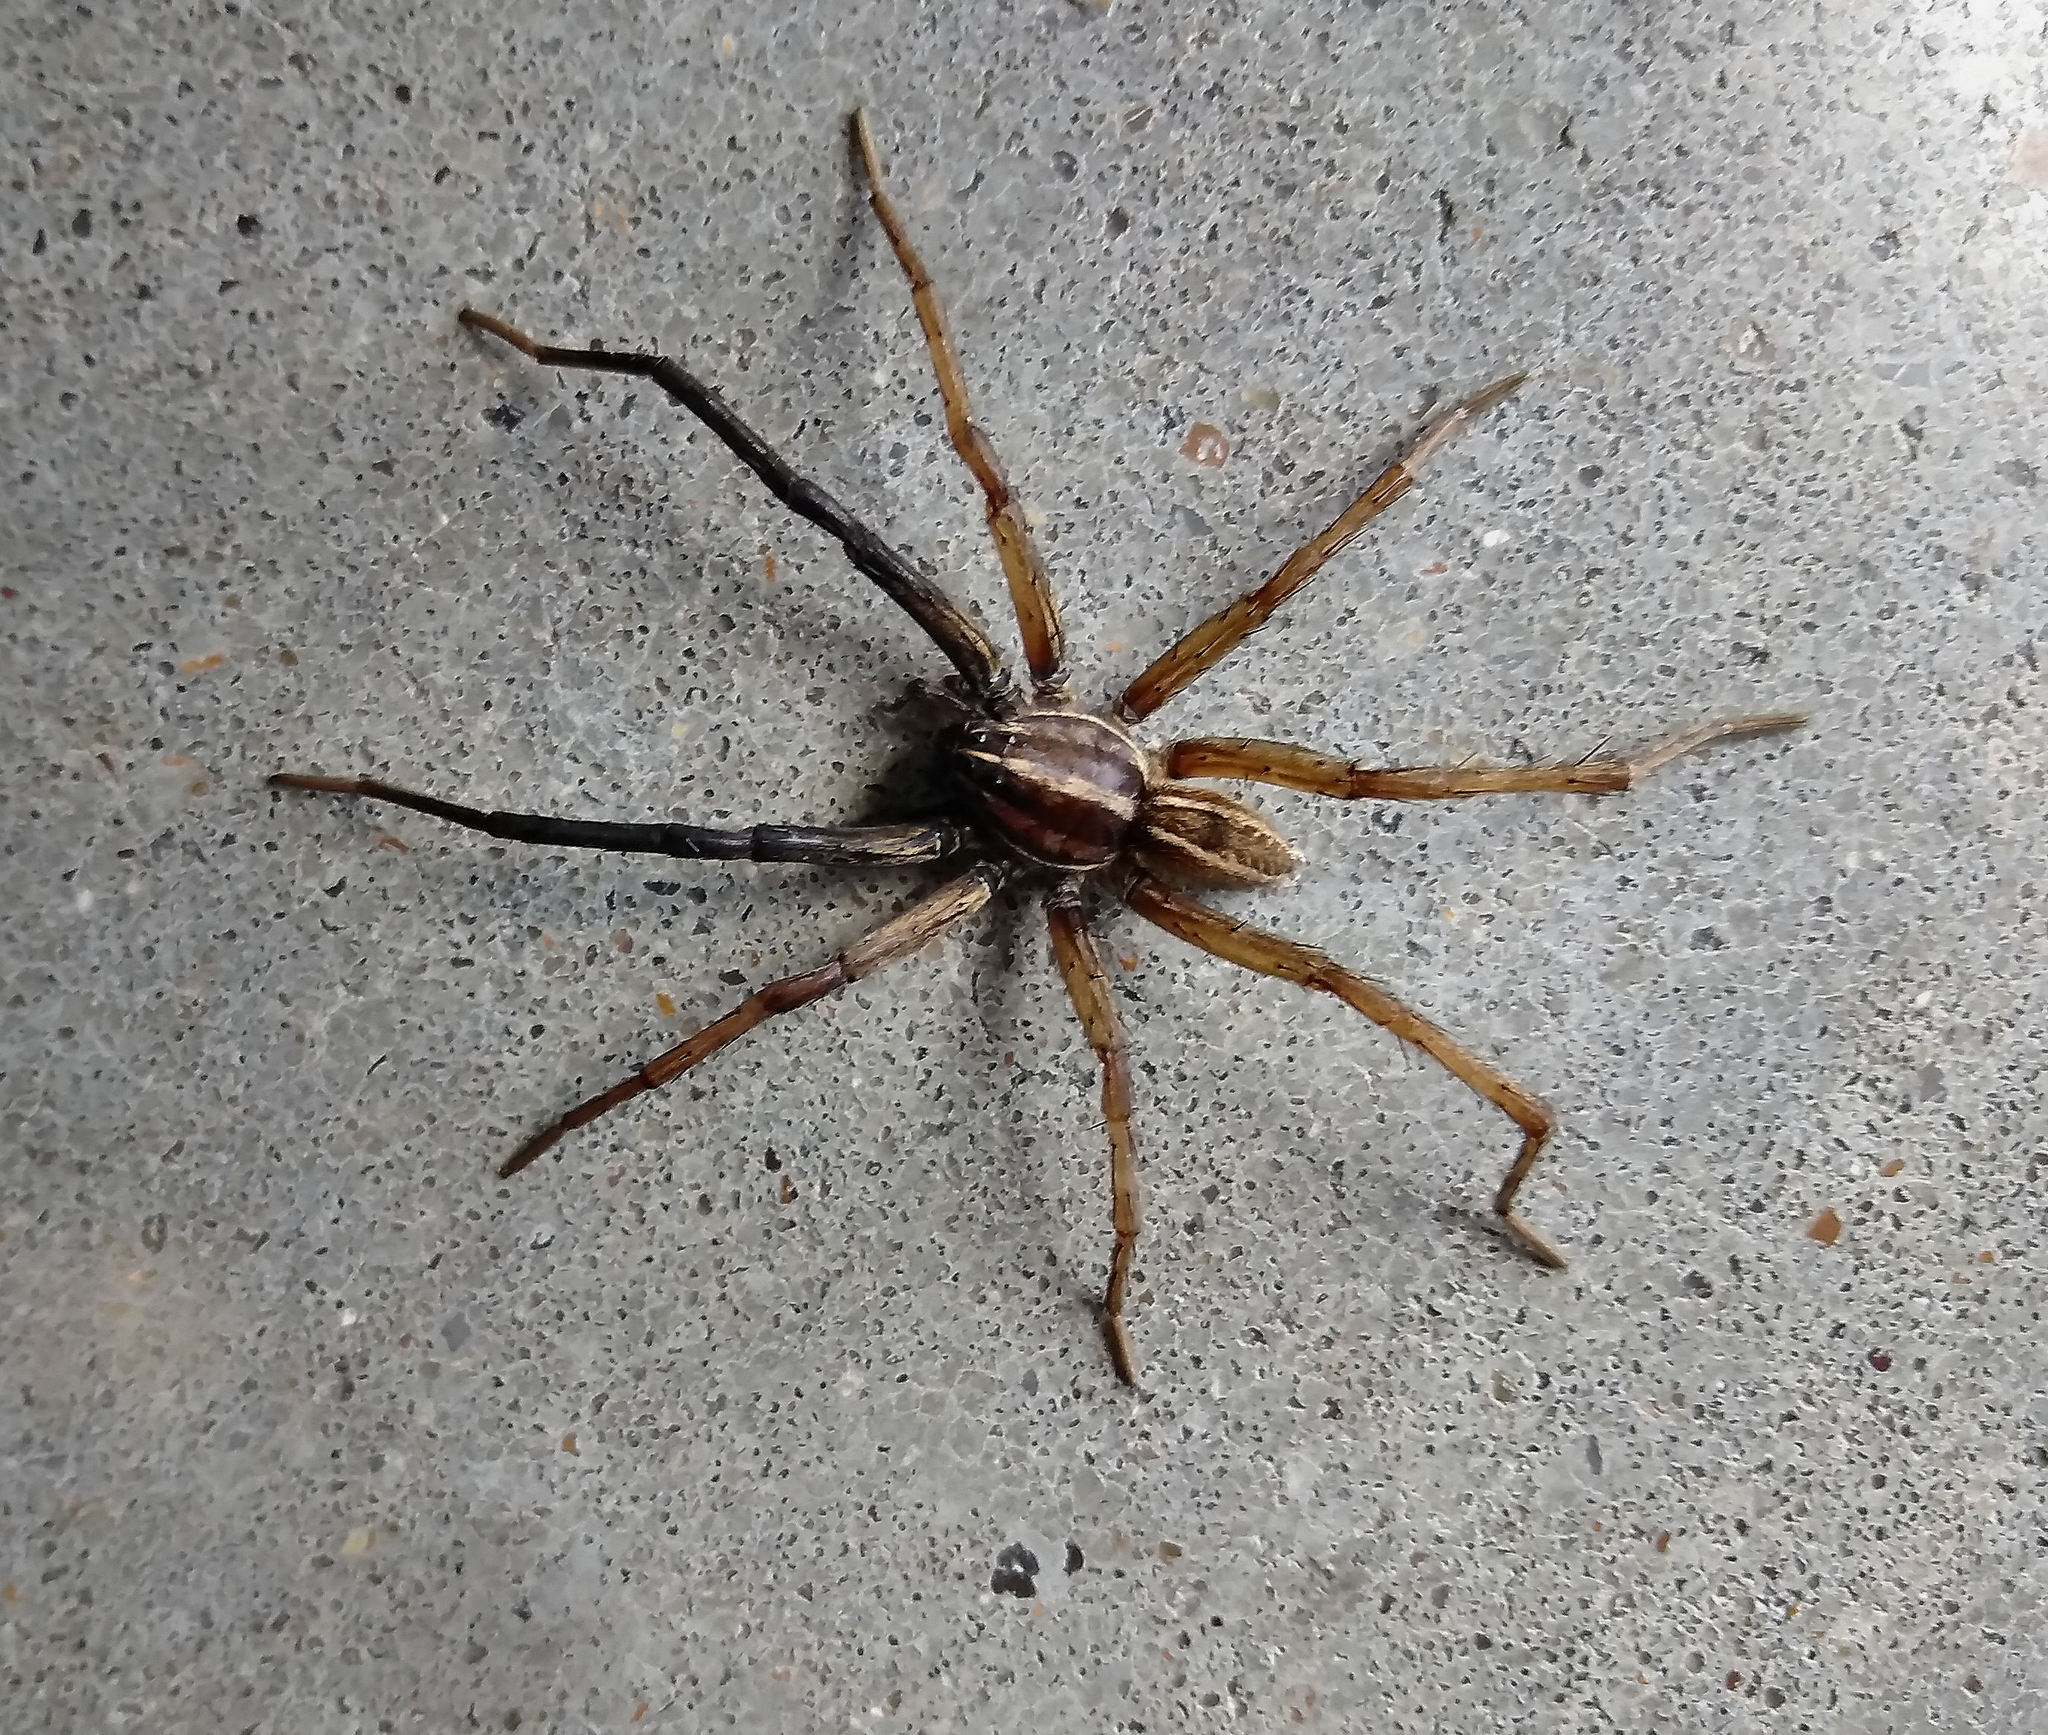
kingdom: Animalia
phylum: Arthropoda
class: Arachnida
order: Araneae
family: Lycosidae
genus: Rabidosa
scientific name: Rabidosa rabida
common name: Rabid wolf spider
